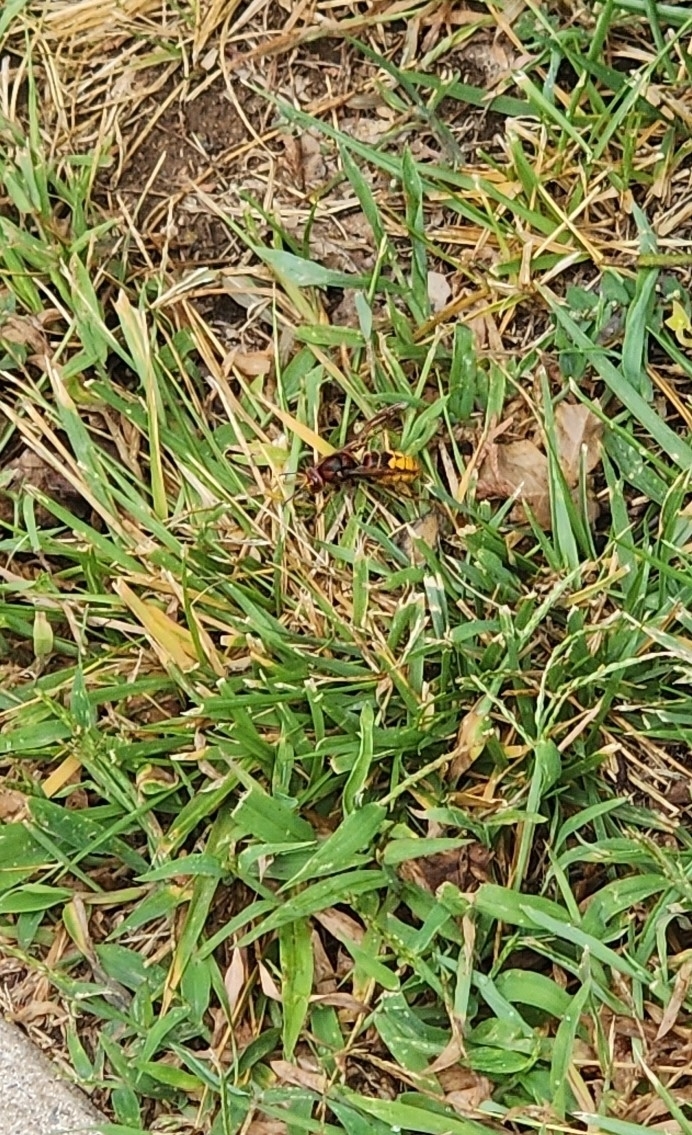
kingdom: Animalia
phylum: Arthropoda
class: Insecta
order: Hymenoptera
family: Vespidae
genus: Vespa
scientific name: Vespa crabro
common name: Hornet
